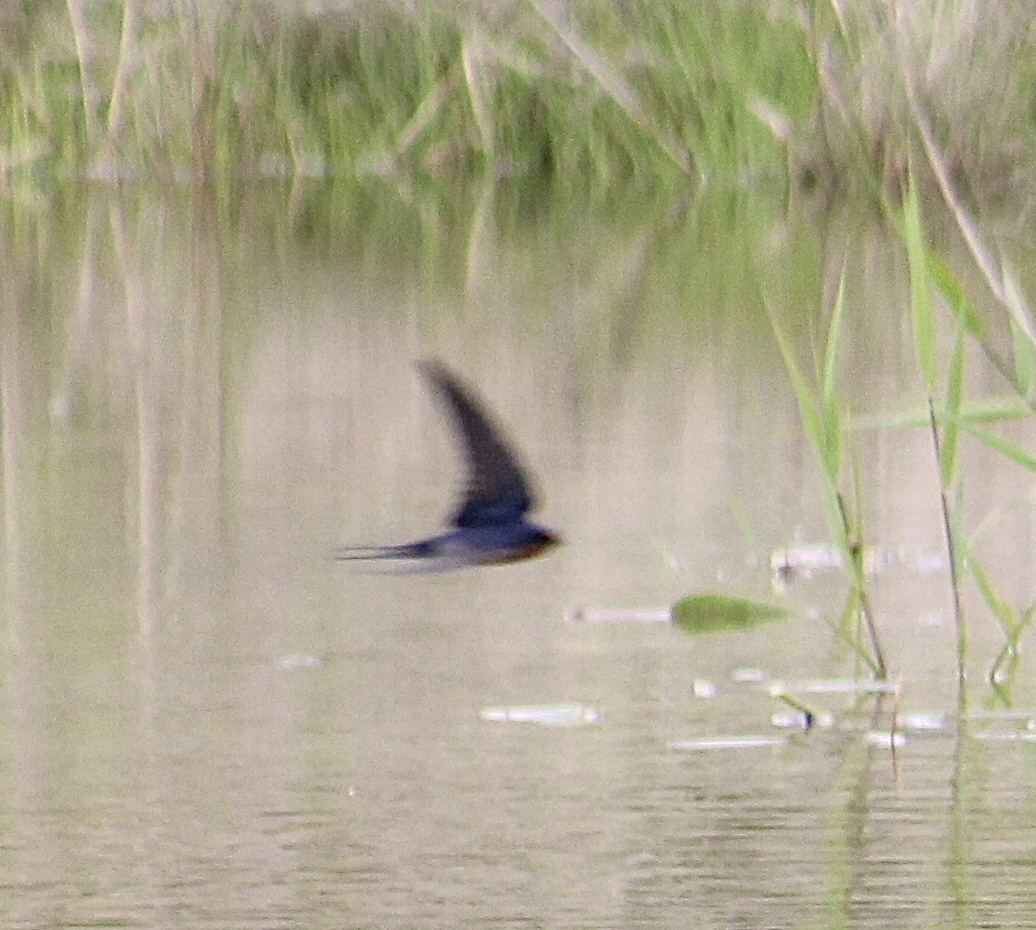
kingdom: Animalia
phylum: Chordata
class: Aves
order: Passeriformes
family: Hirundinidae
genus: Hirundo
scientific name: Hirundo rustica
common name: Barn swallow
